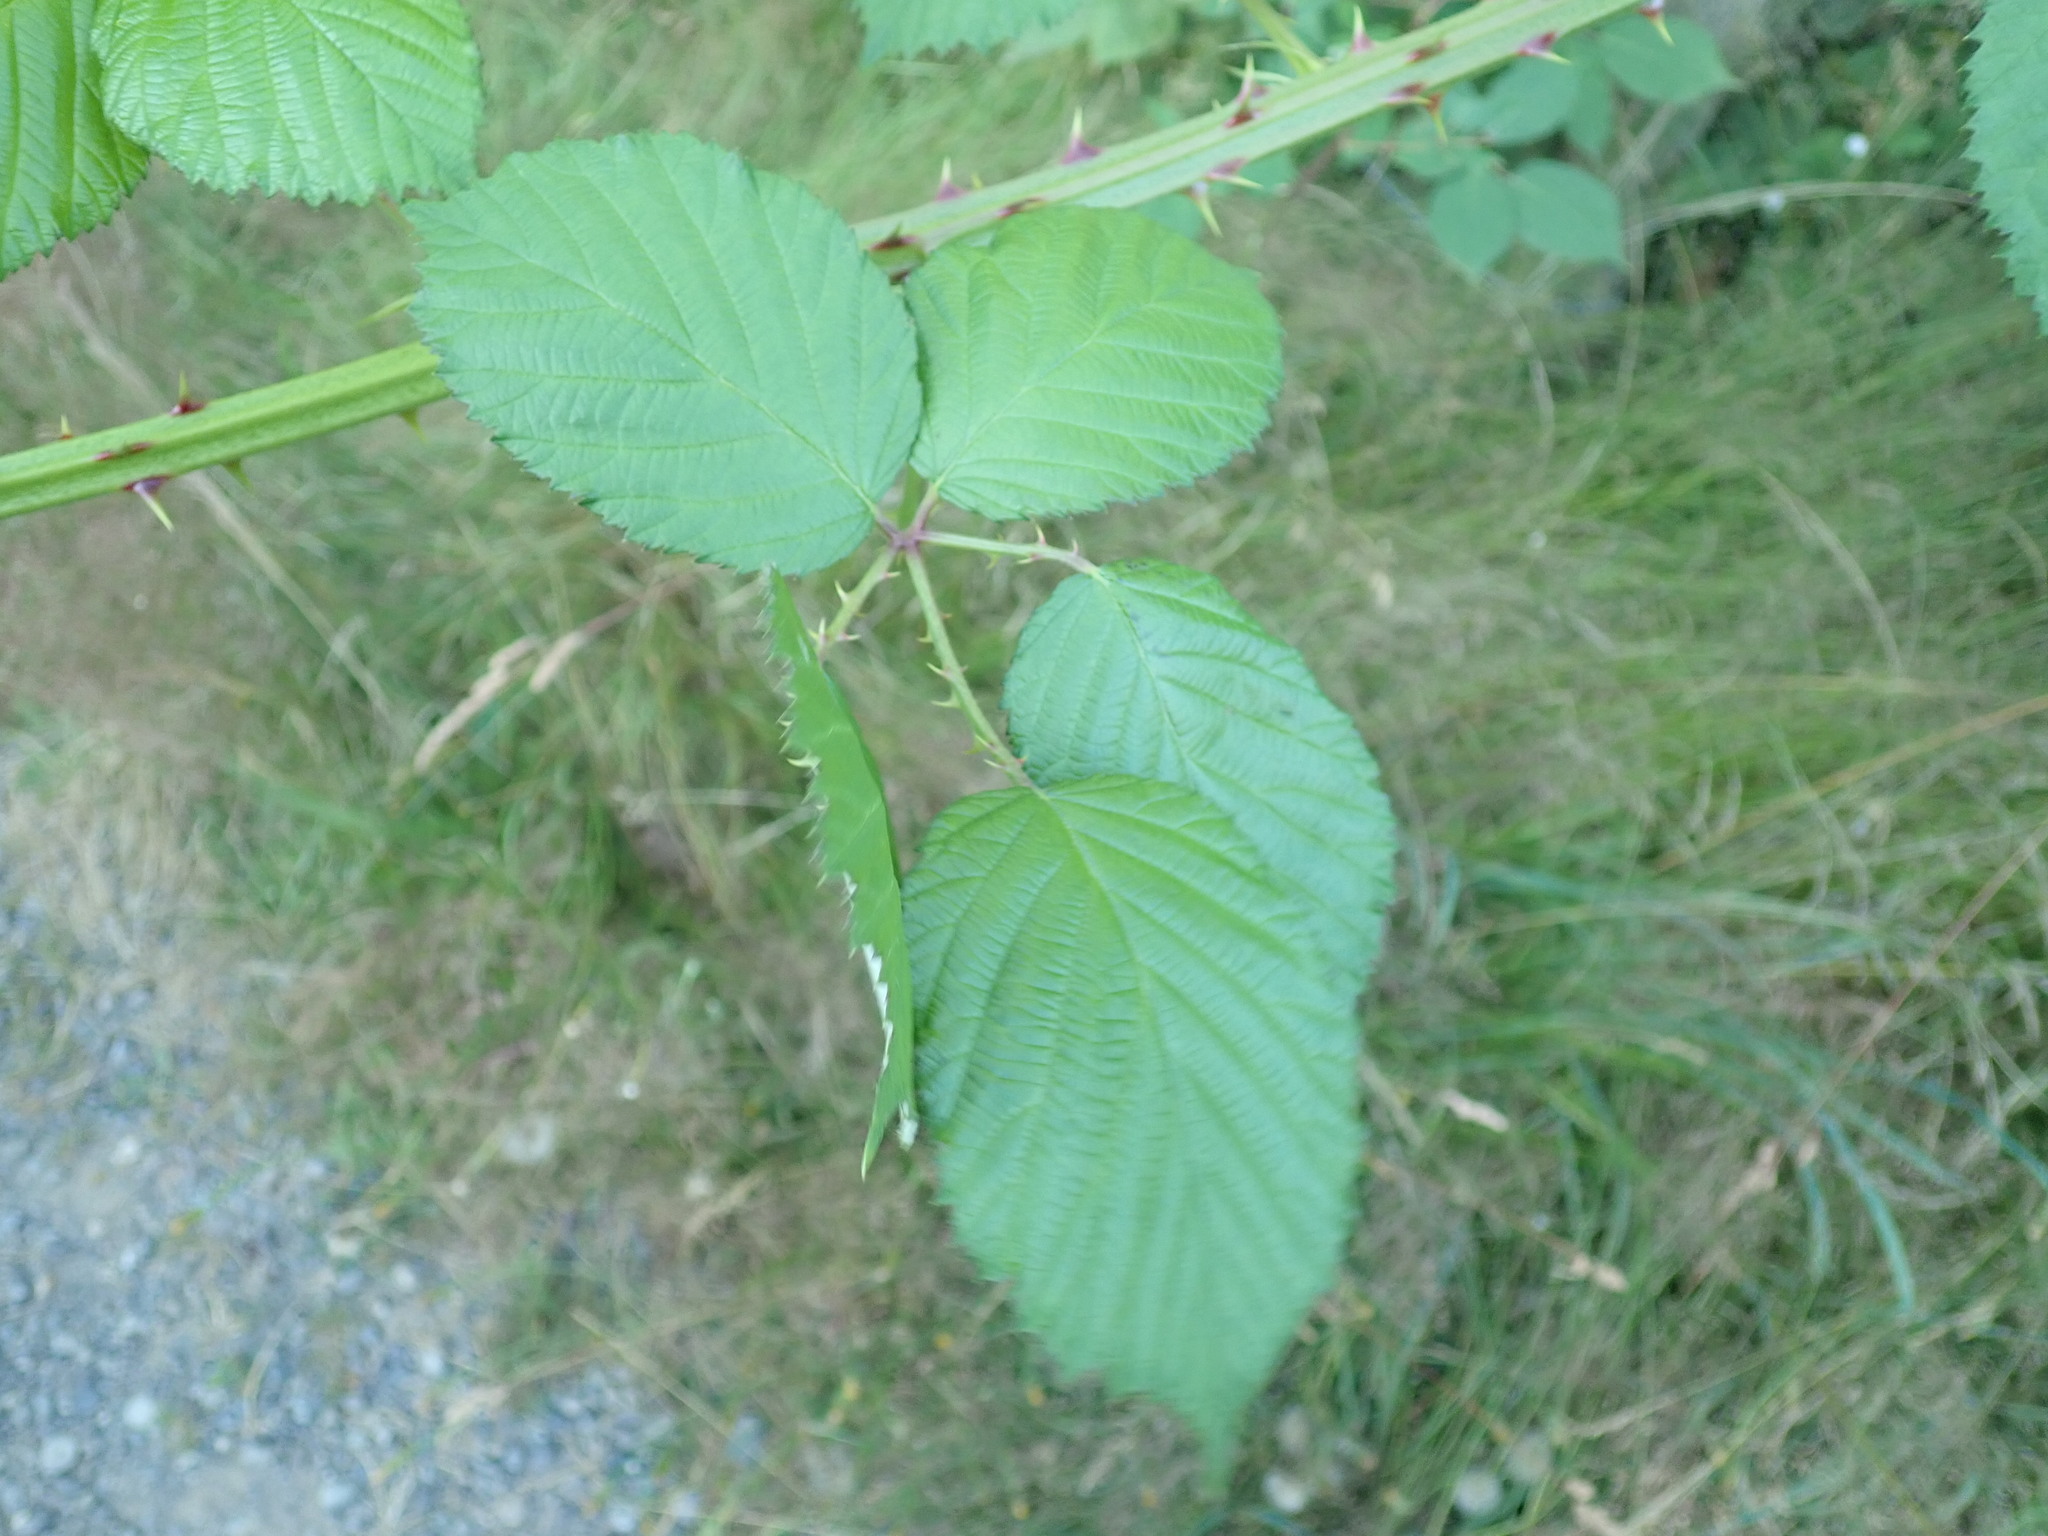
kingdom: Plantae
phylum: Tracheophyta
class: Magnoliopsida
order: Rosales
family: Rosaceae
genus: Rubus
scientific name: Rubus armeniacus
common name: Himalayan blackberry
